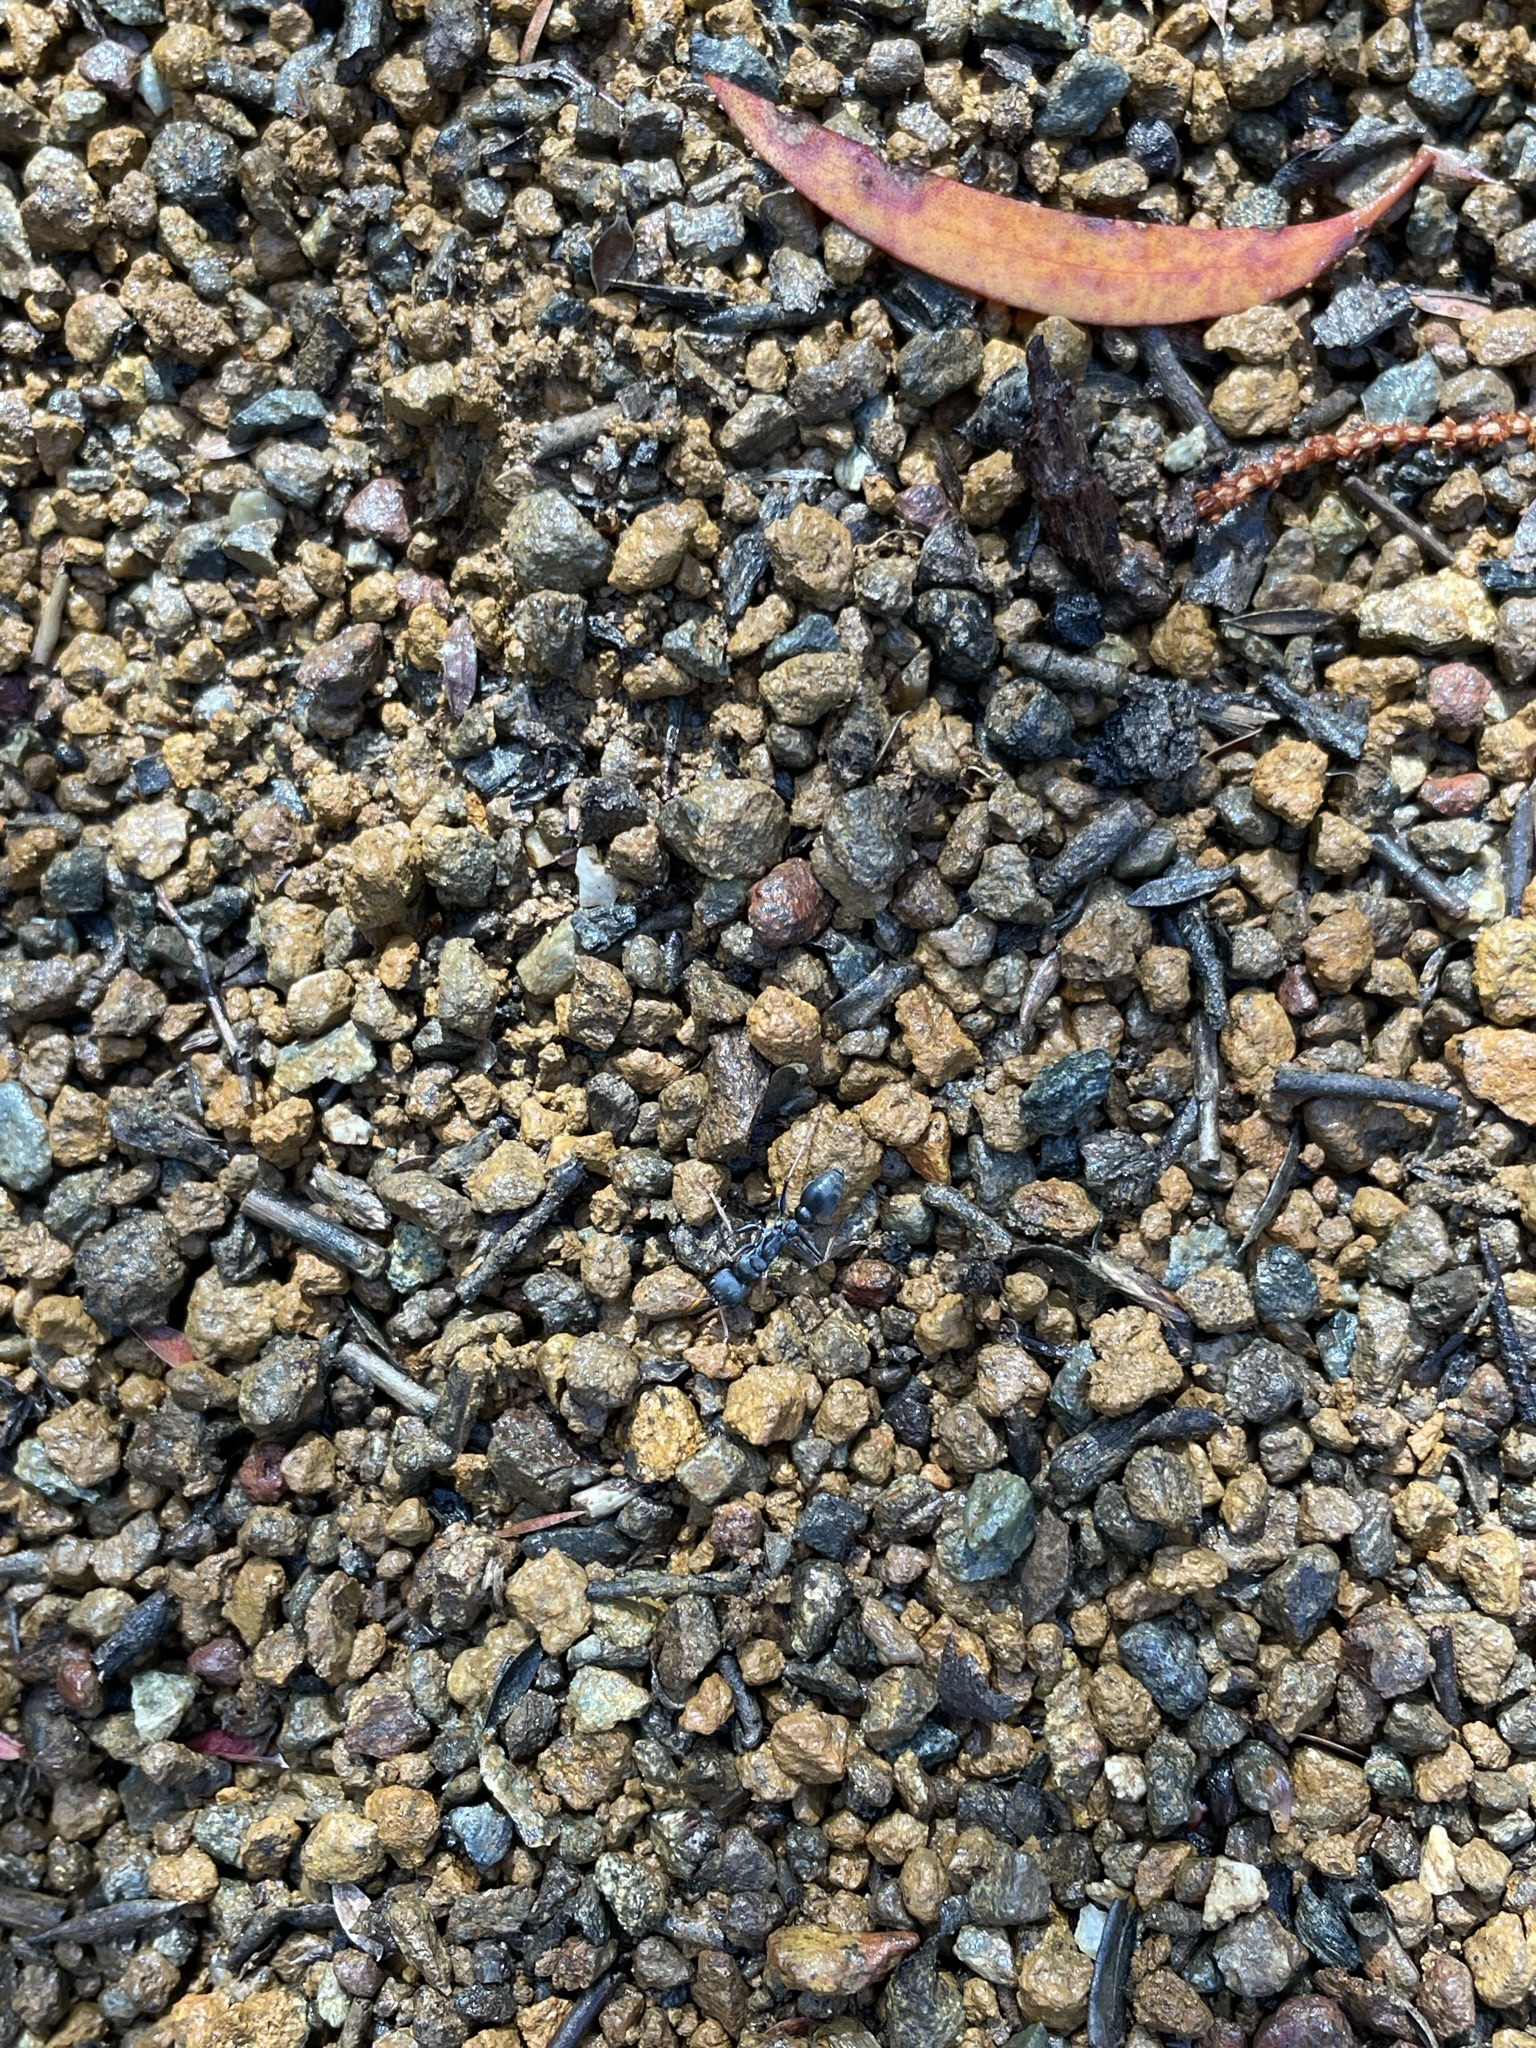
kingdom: Animalia
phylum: Arthropoda
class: Insecta
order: Hymenoptera
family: Formicidae
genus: Myrmecia
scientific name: Myrmecia pilosula
